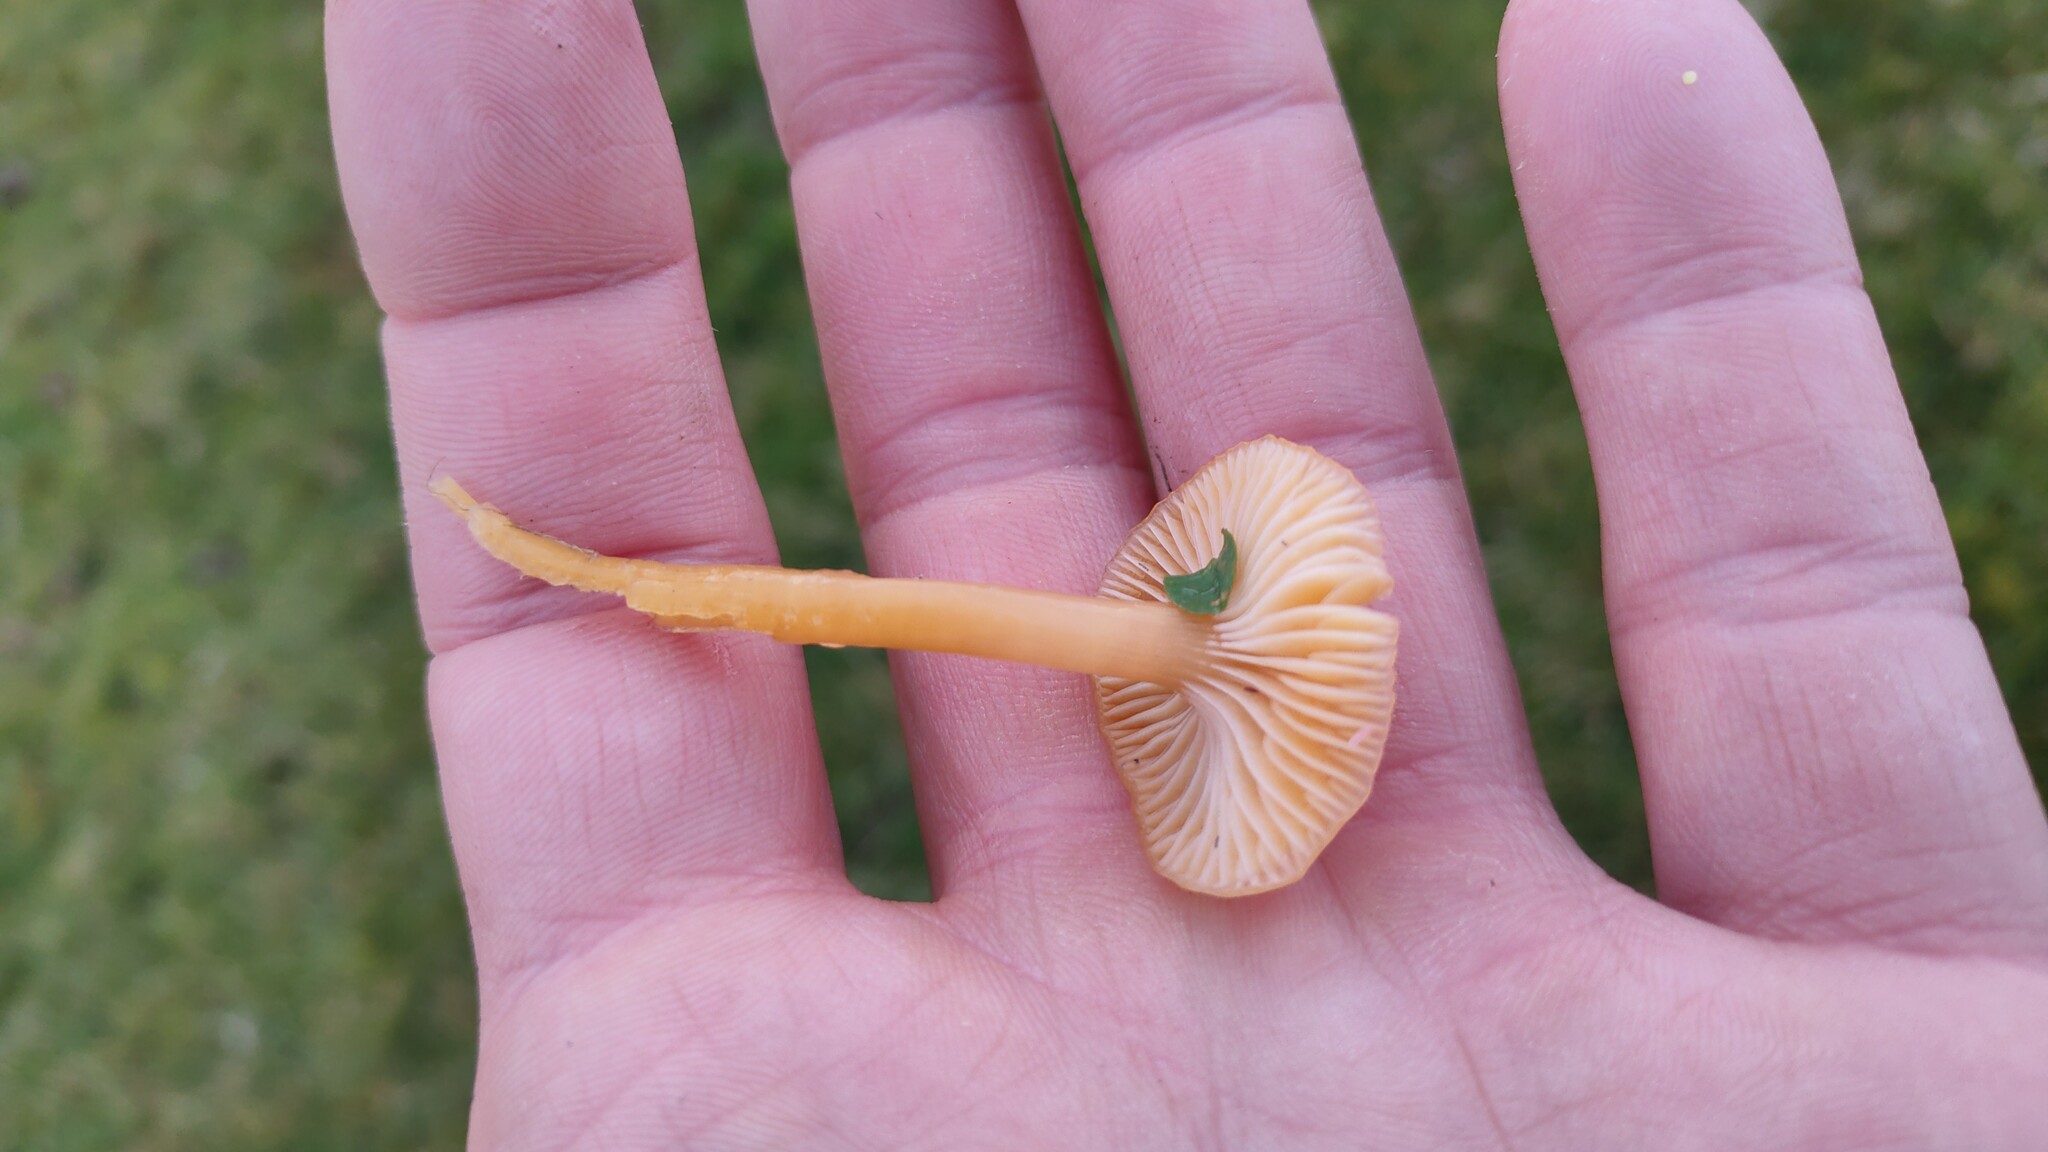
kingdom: Fungi
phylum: Basidiomycota
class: Agaricomycetes
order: Agaricales
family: Hygrophoraceae
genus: Gliophorus
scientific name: Gliophorus laetus
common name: Heath waxcap
